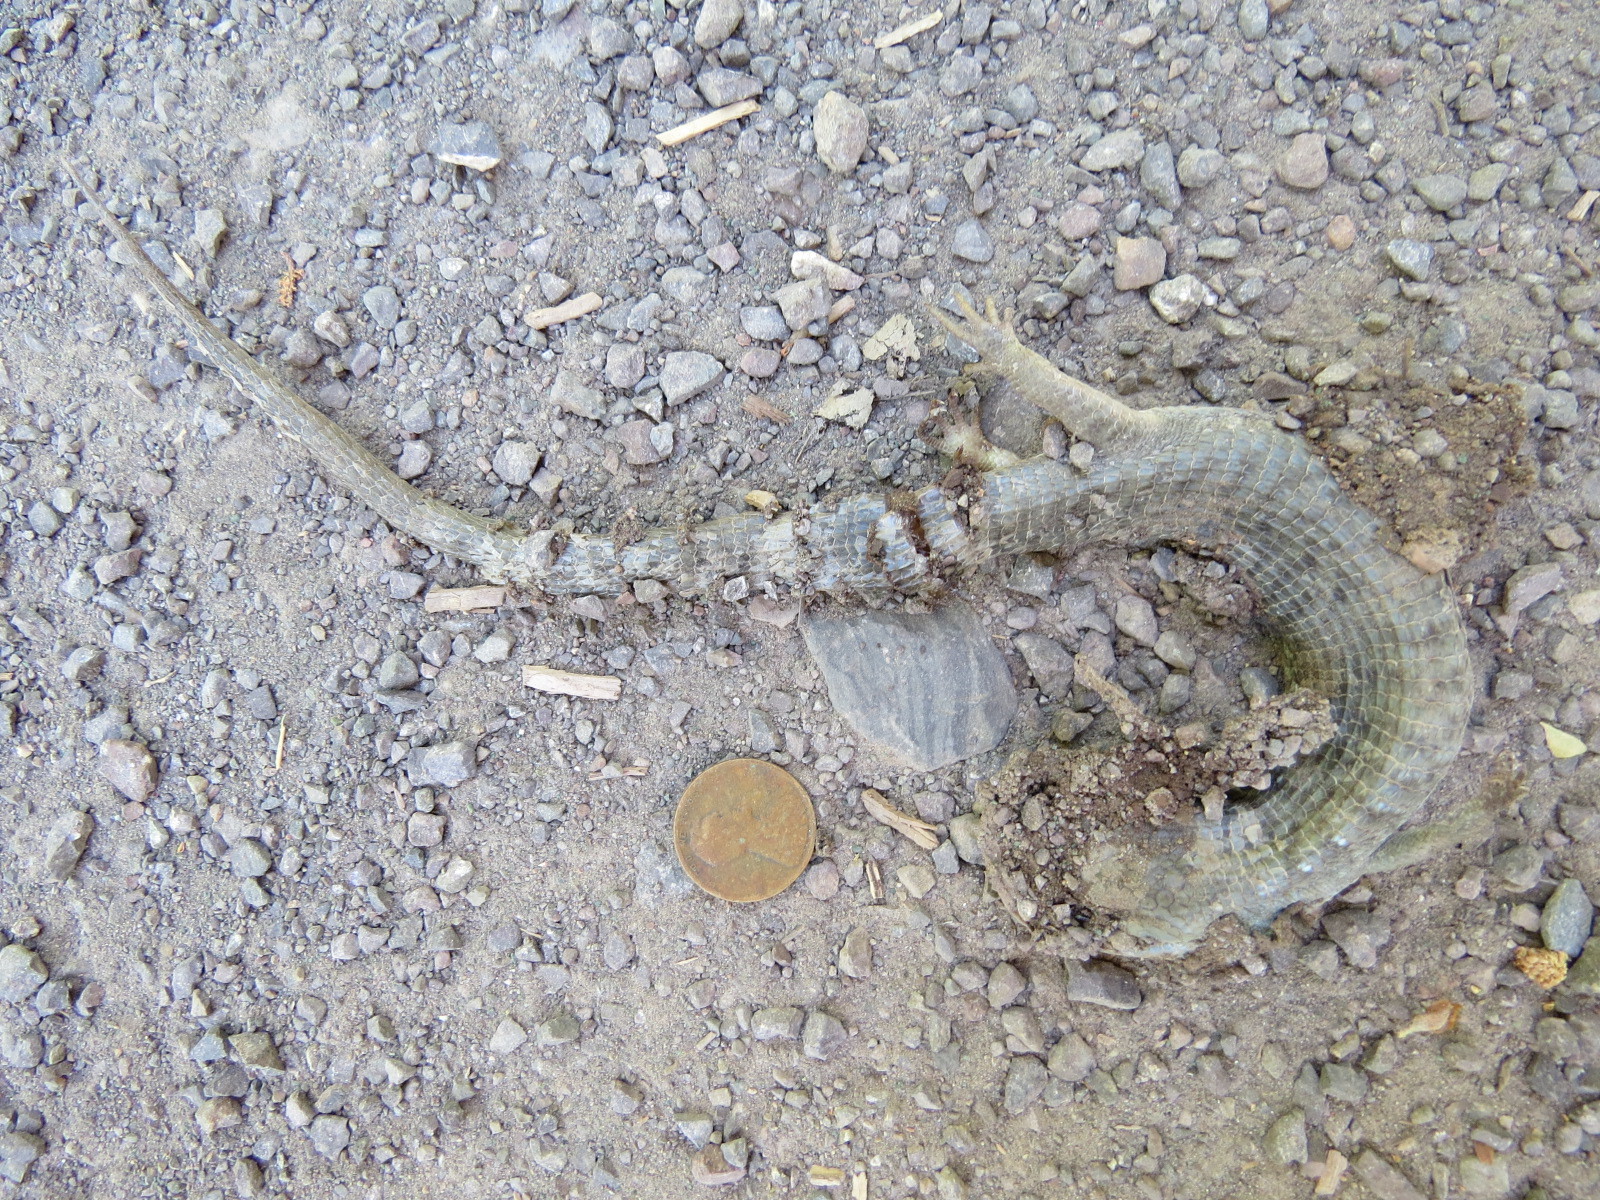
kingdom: Animalia
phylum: Chordata
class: Squamata
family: Anguidae
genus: Elgaria
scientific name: Elgaria coerulea
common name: Northern alligator lizard
